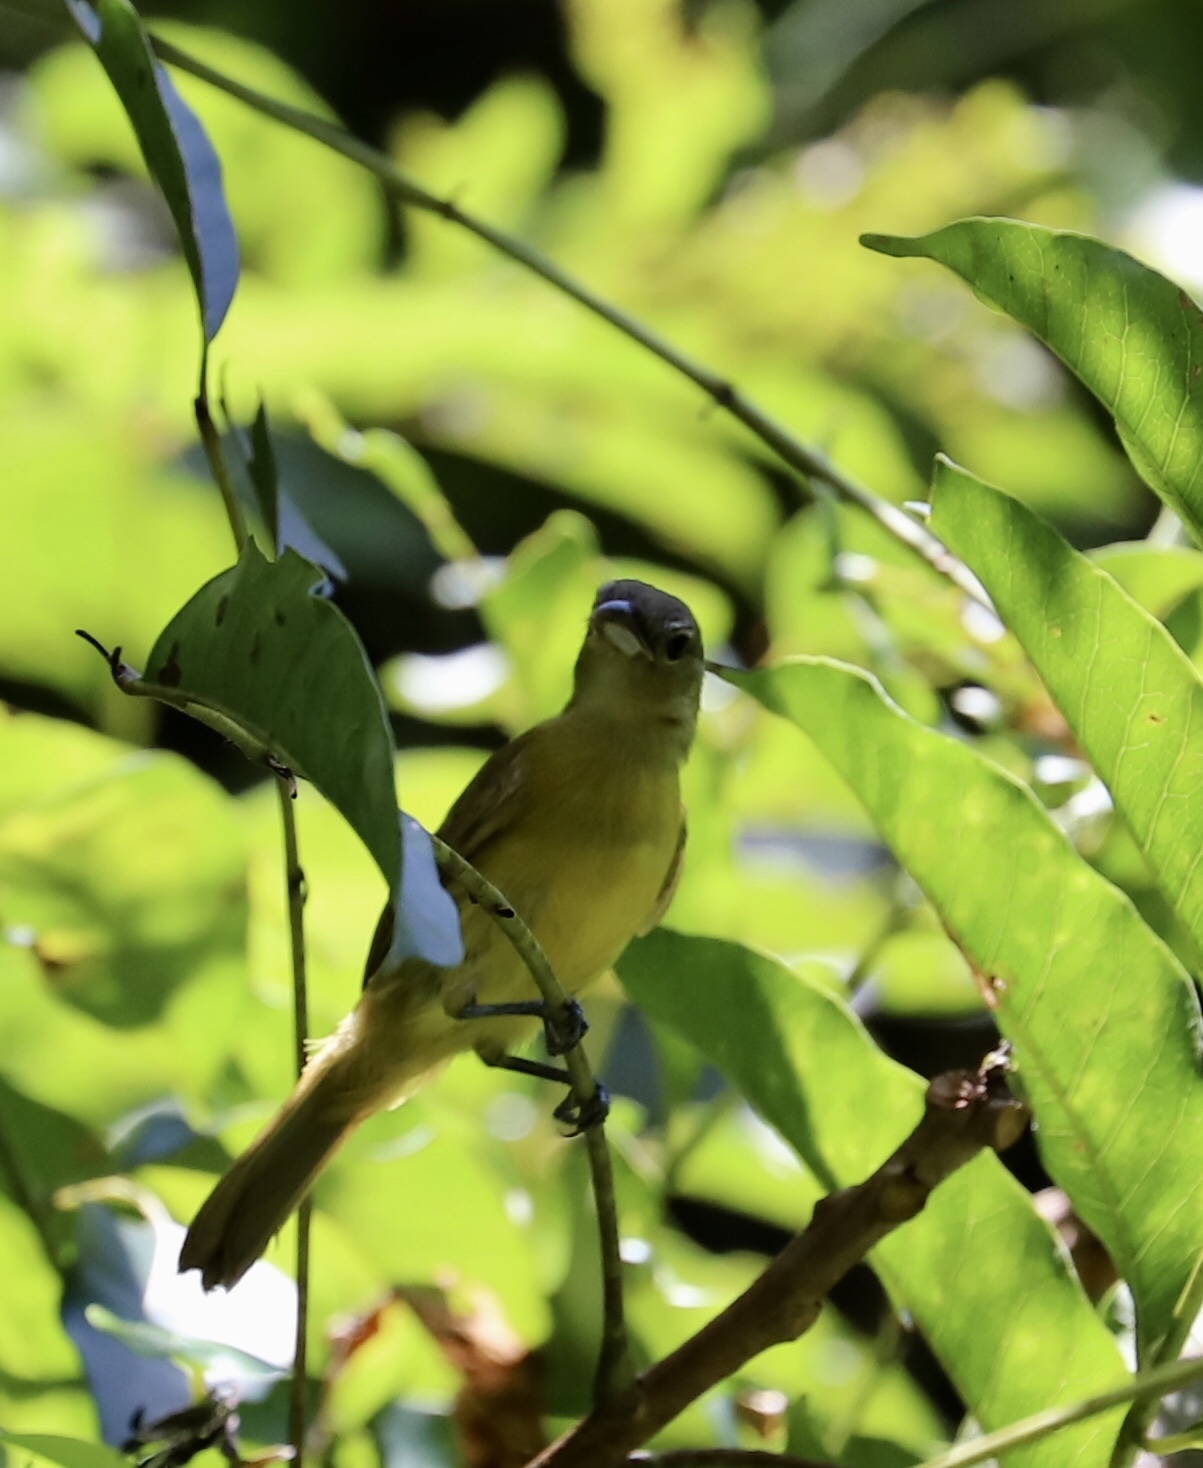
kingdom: Animalia
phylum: Chordata
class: Aves
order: Passeriformes
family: Thraupidae
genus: Loriotus
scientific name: Loriotus luctuosus
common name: White-shouldered tanager
